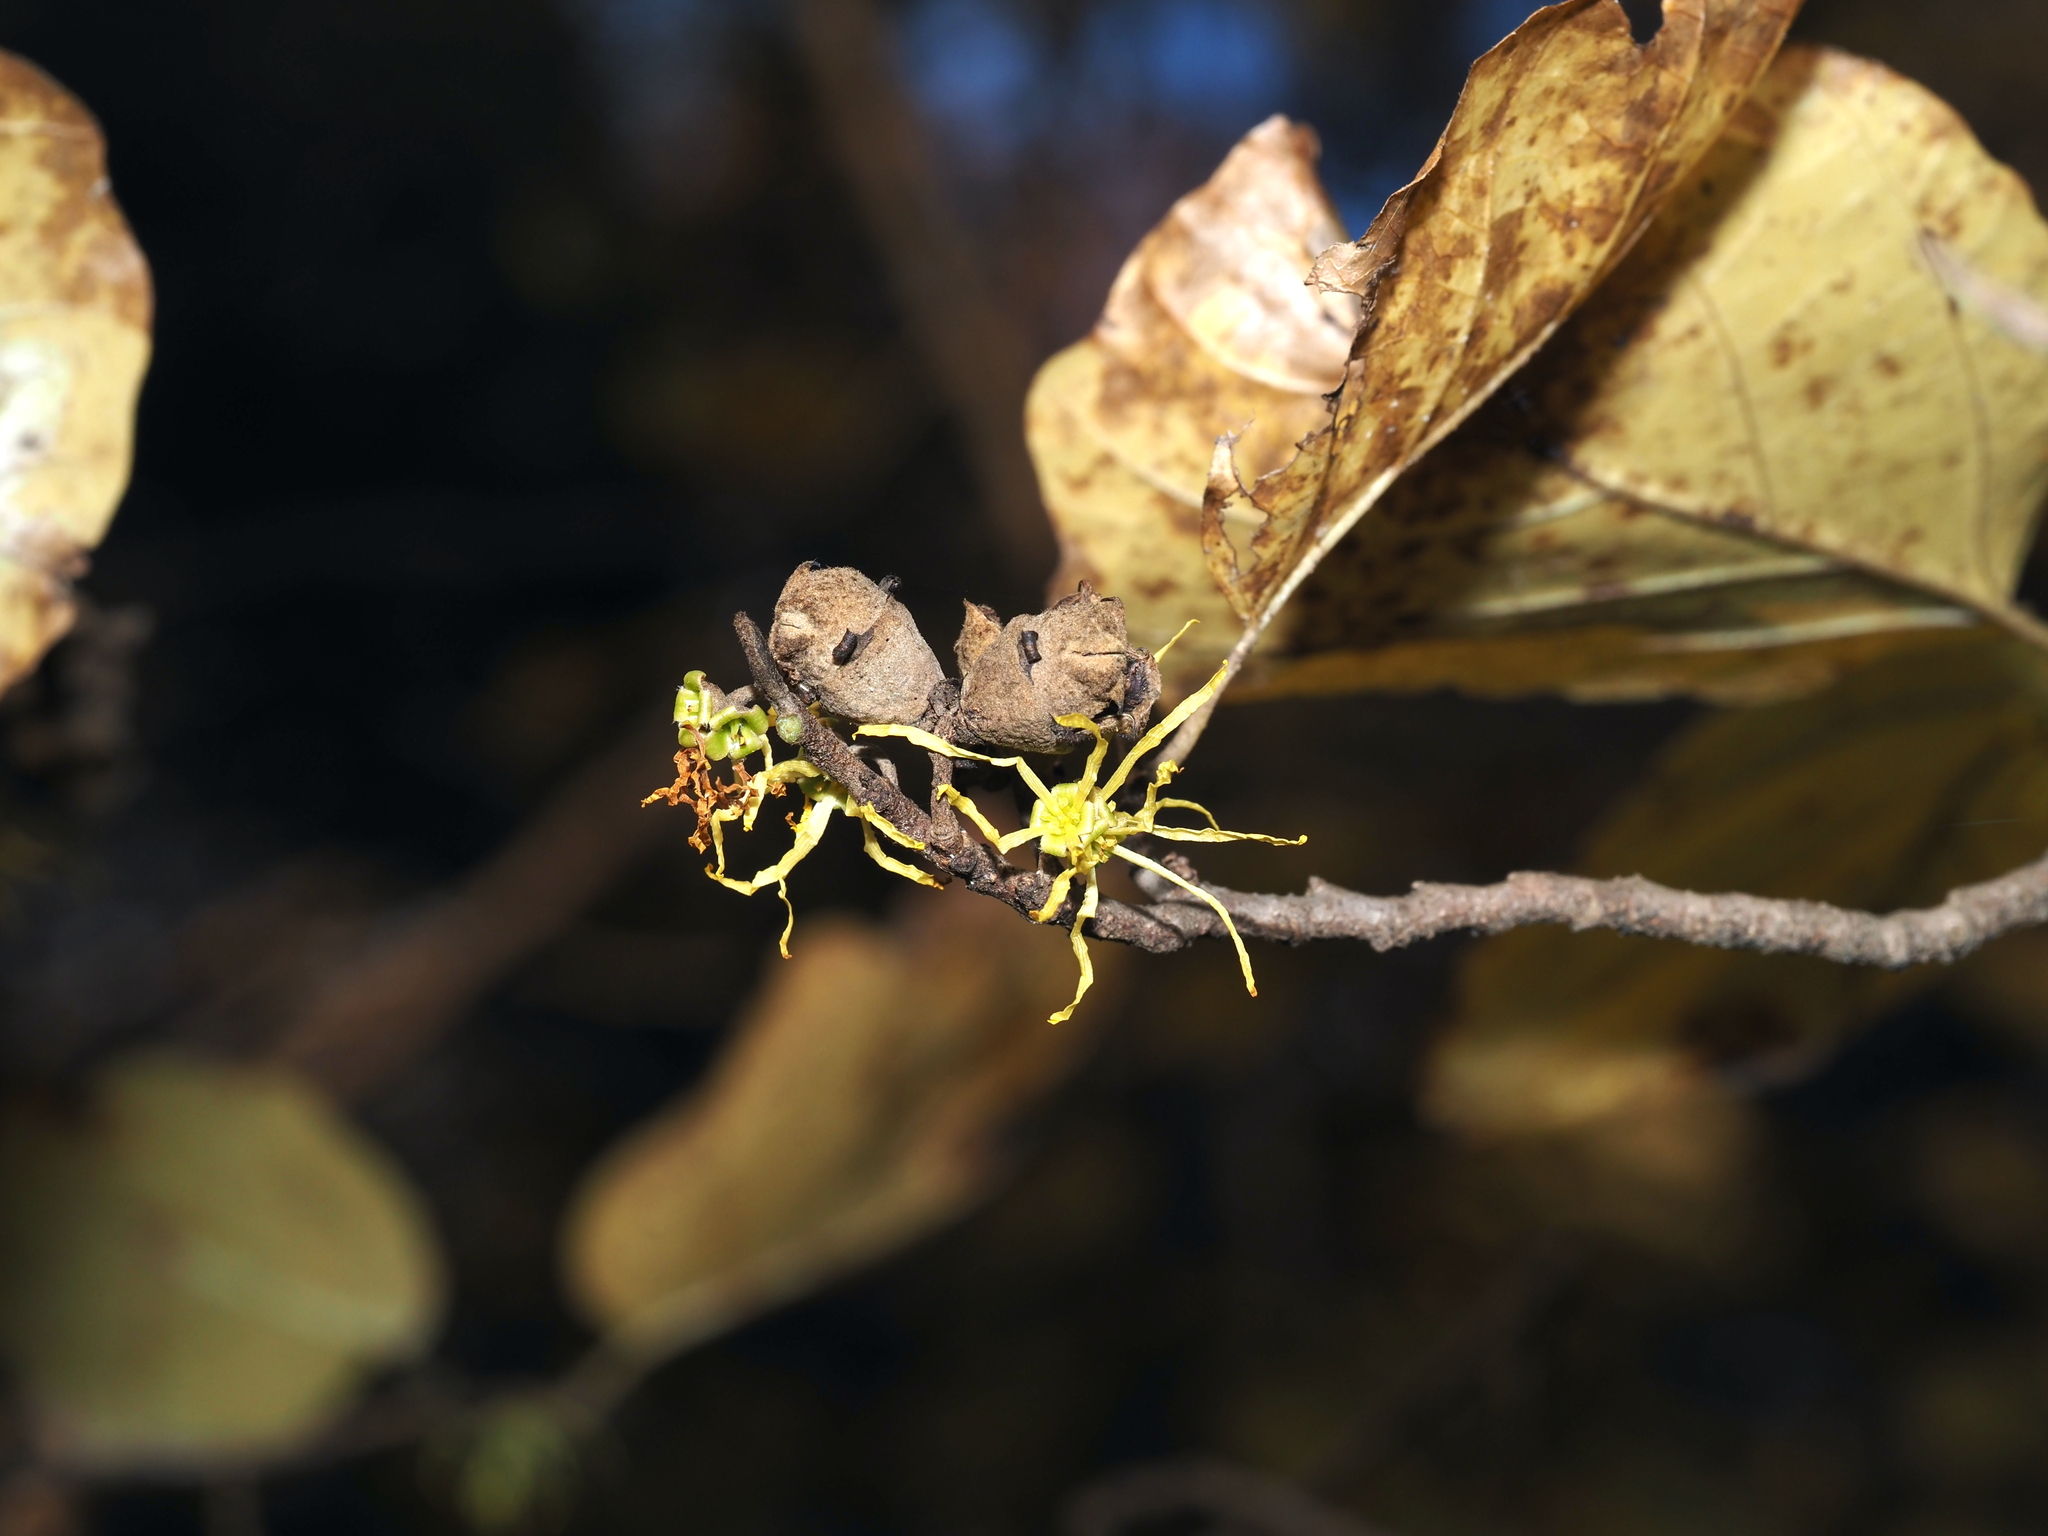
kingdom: Plantae
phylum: Tracheophyta
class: Magnoliopsida
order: Saxifragales
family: Hamamelidaceae
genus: Hamamelis
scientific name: Hamamelis virginiana
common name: Witch-hazel
